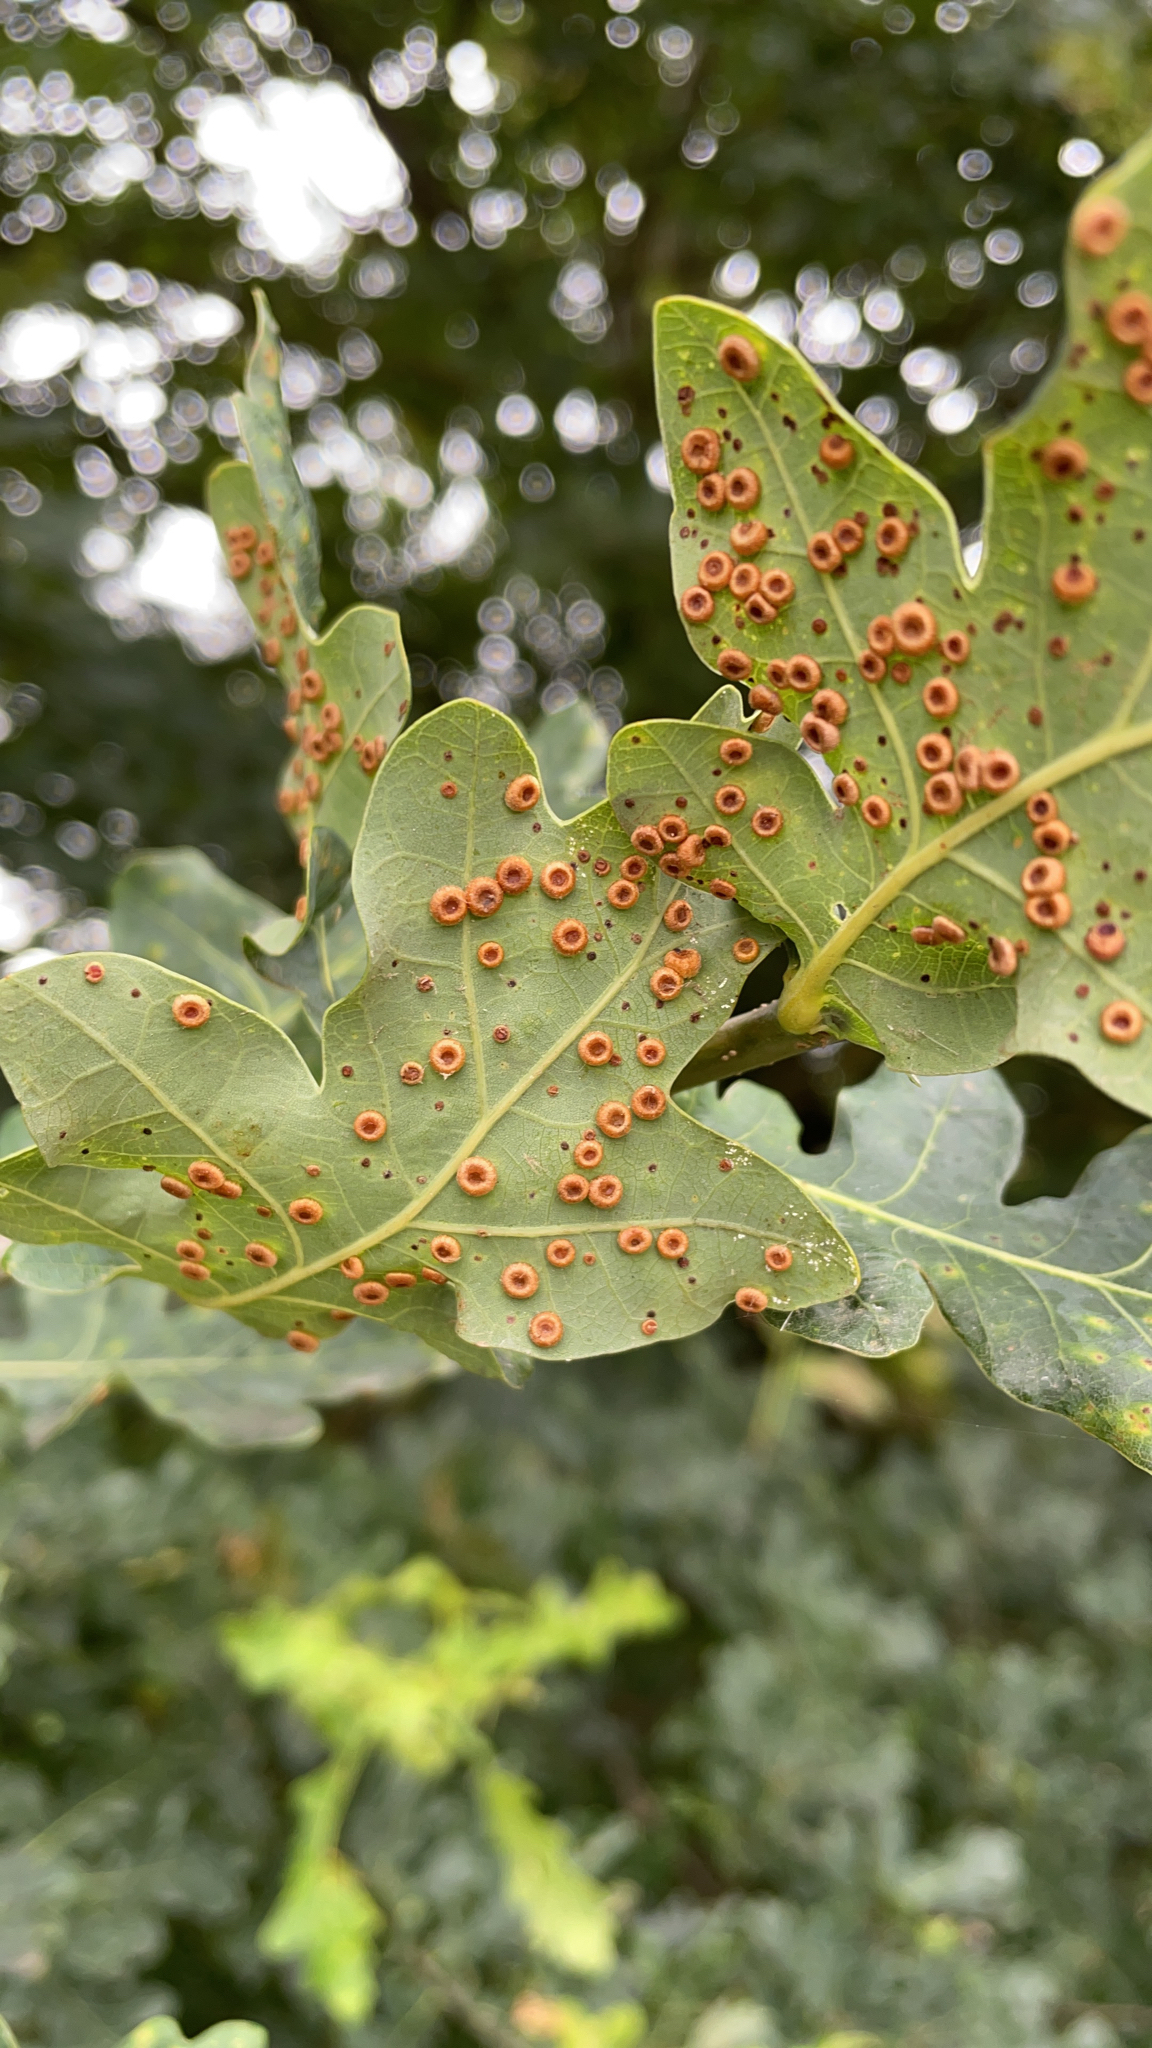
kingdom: Animalia
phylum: Arthropoda
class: Insecta
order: Hymenoptera
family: Cynipidae
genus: Neuroterus
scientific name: Neuroterus numismalis
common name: Silk-button spangle gall
